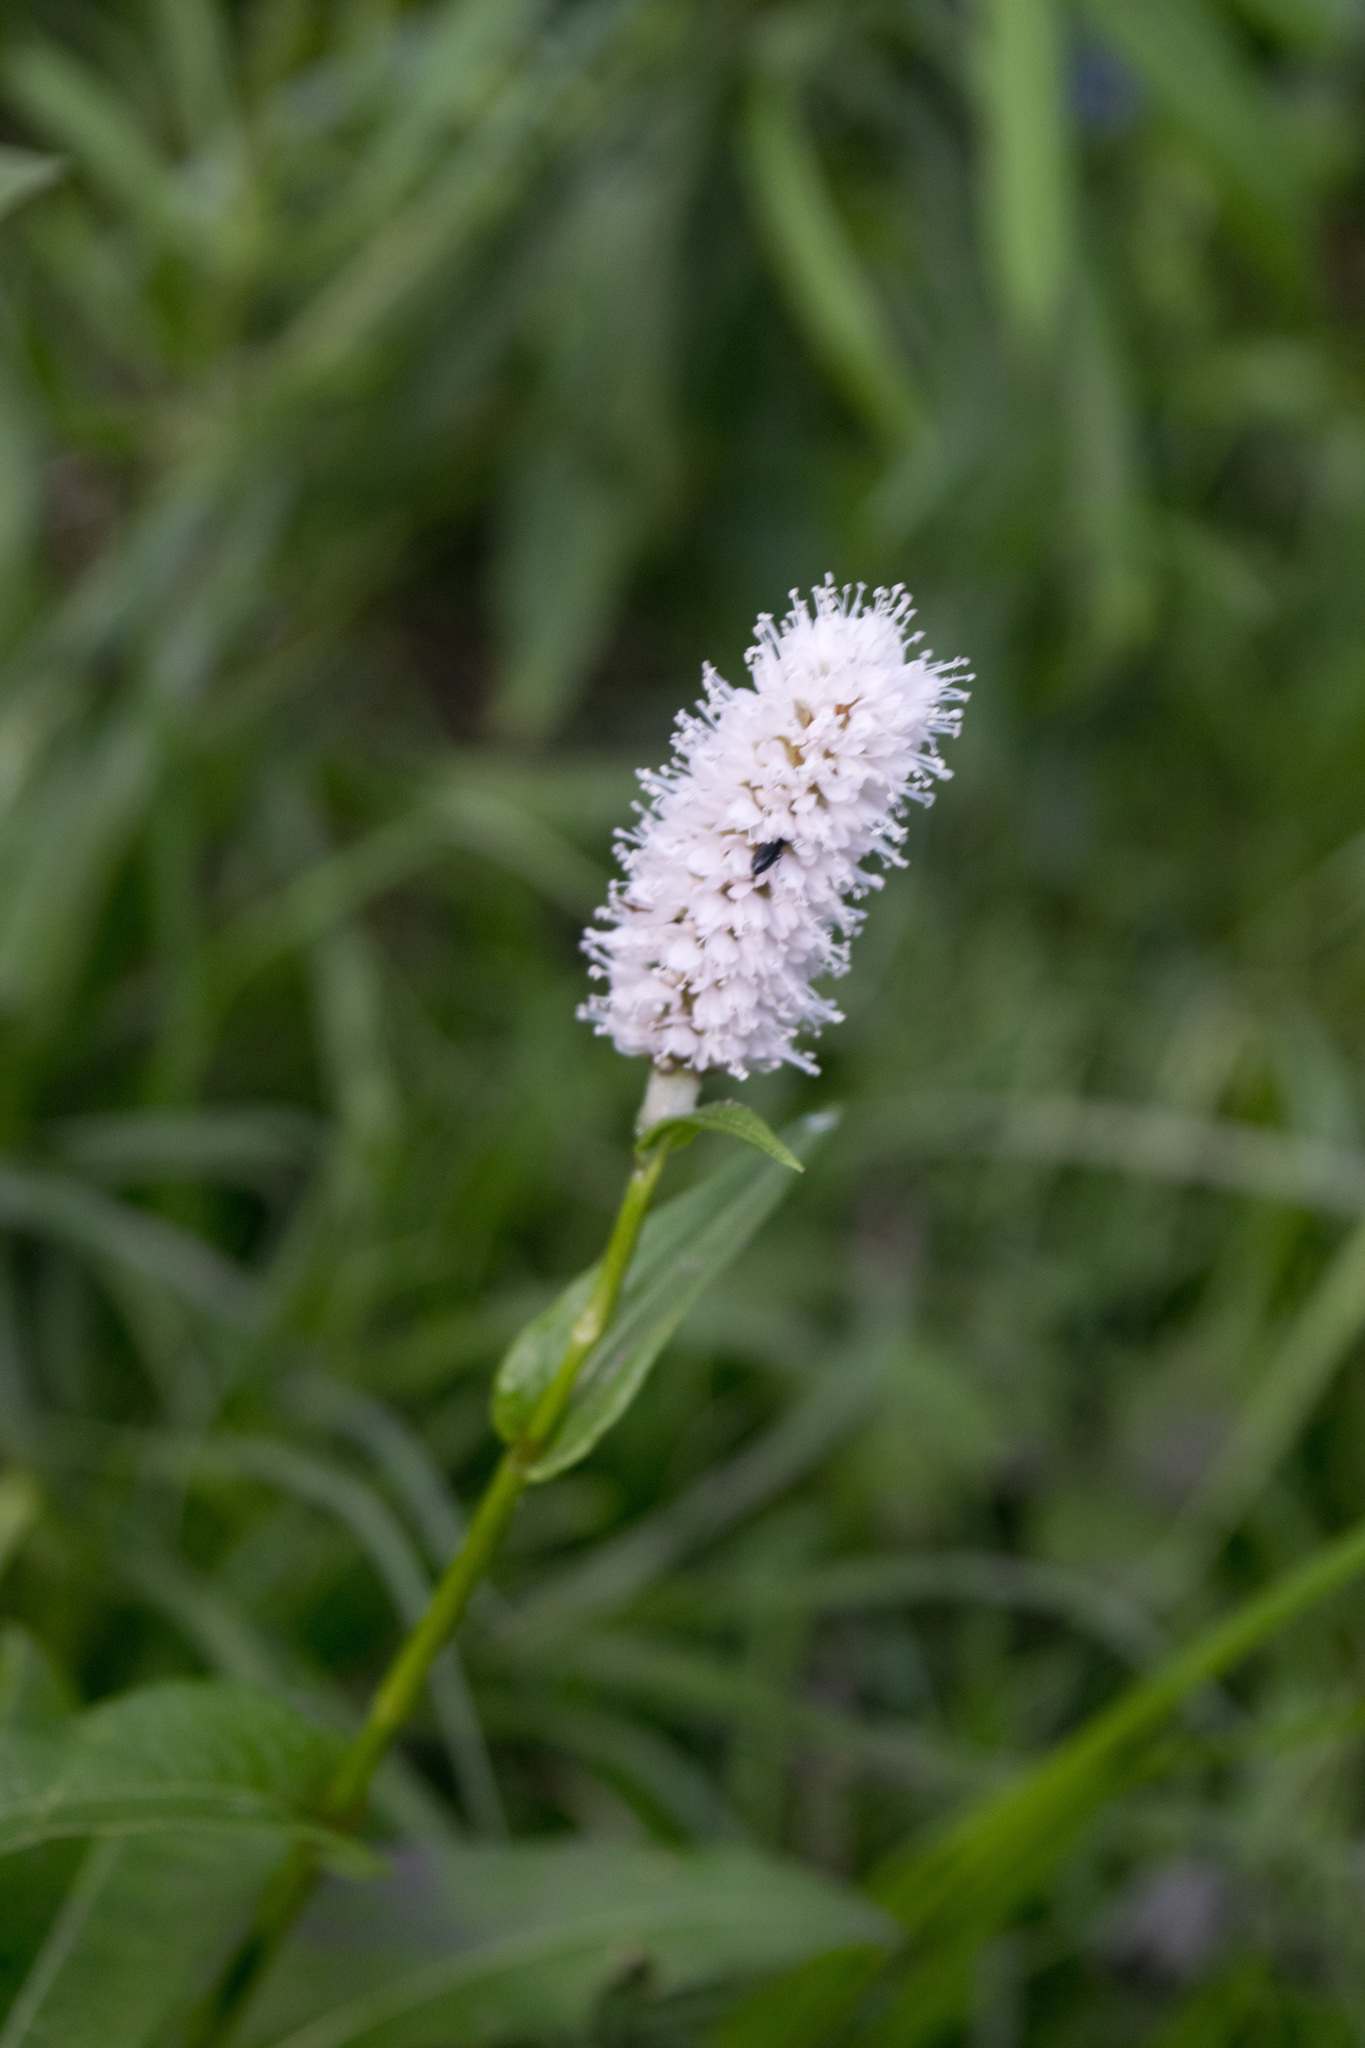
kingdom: Plantae
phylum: Tracheophyta
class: Magnoliopsida
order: Caryophyllales
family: Polygonaceae
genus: Bistorta
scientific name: Bistorta officinalis
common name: Common bistort
